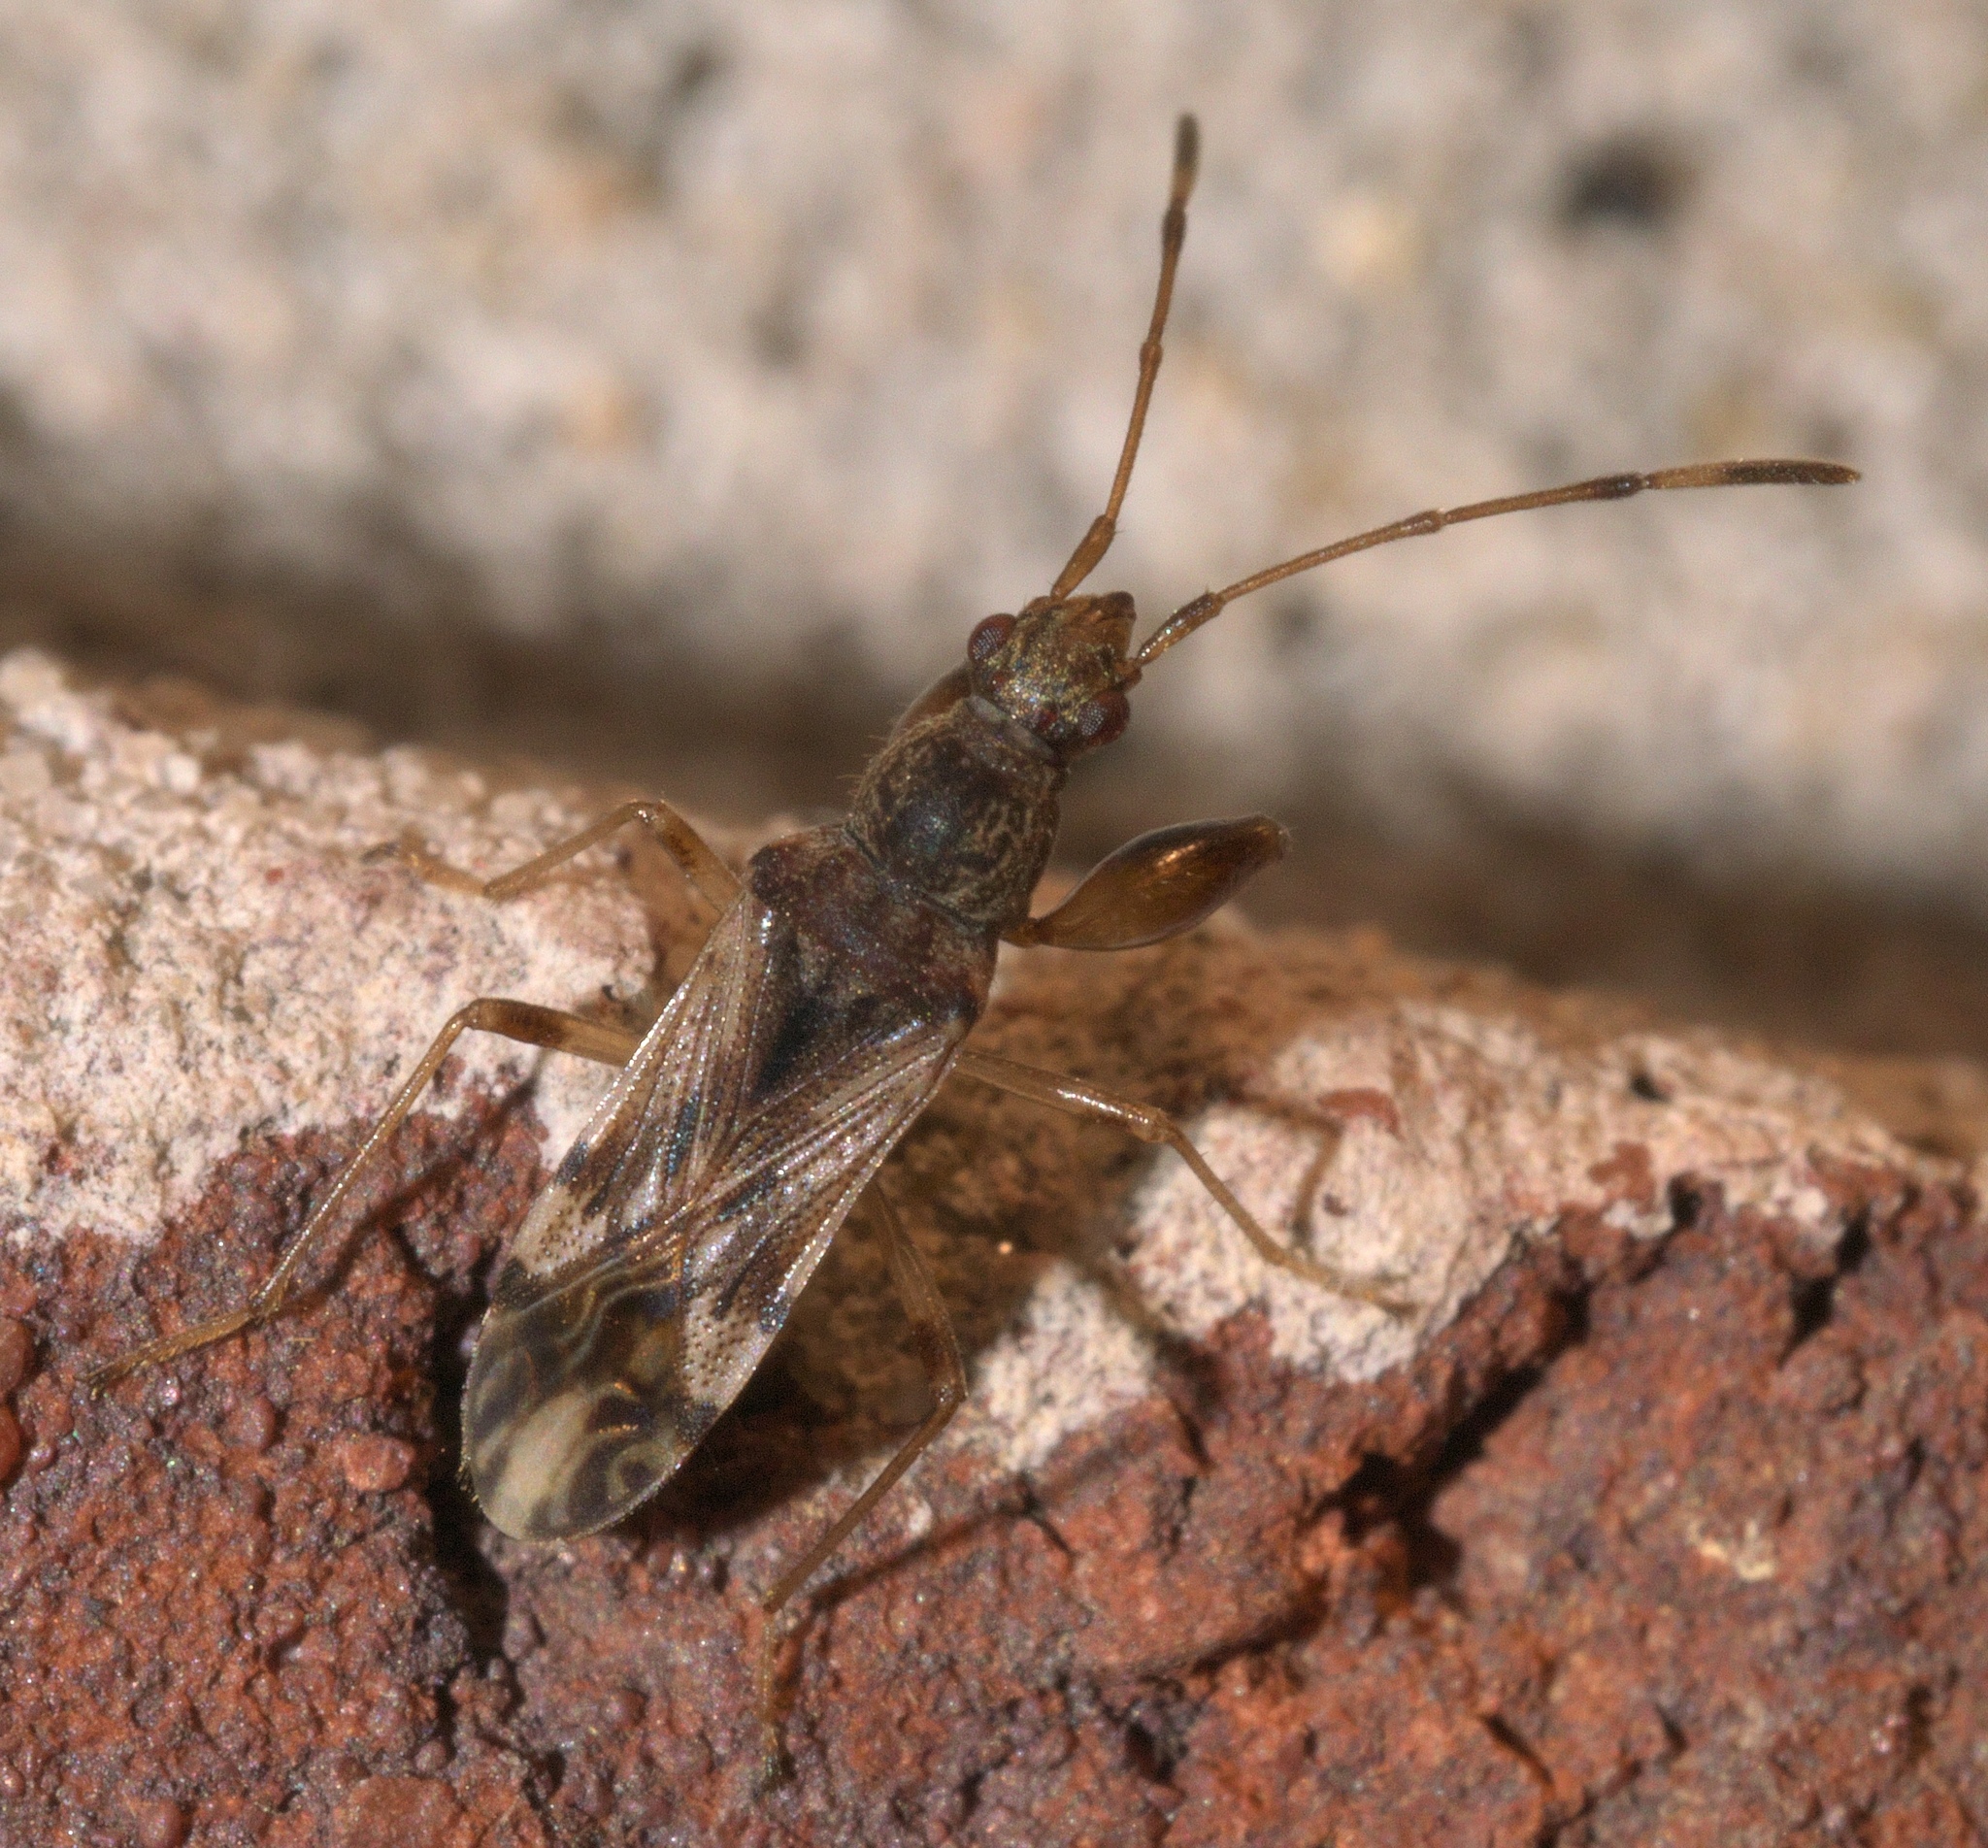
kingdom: Animalia
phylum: Arthropoda
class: Insecta
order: Hemiptera
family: Rhyparochromidae
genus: Neopamera
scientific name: Neopamera albocincta
